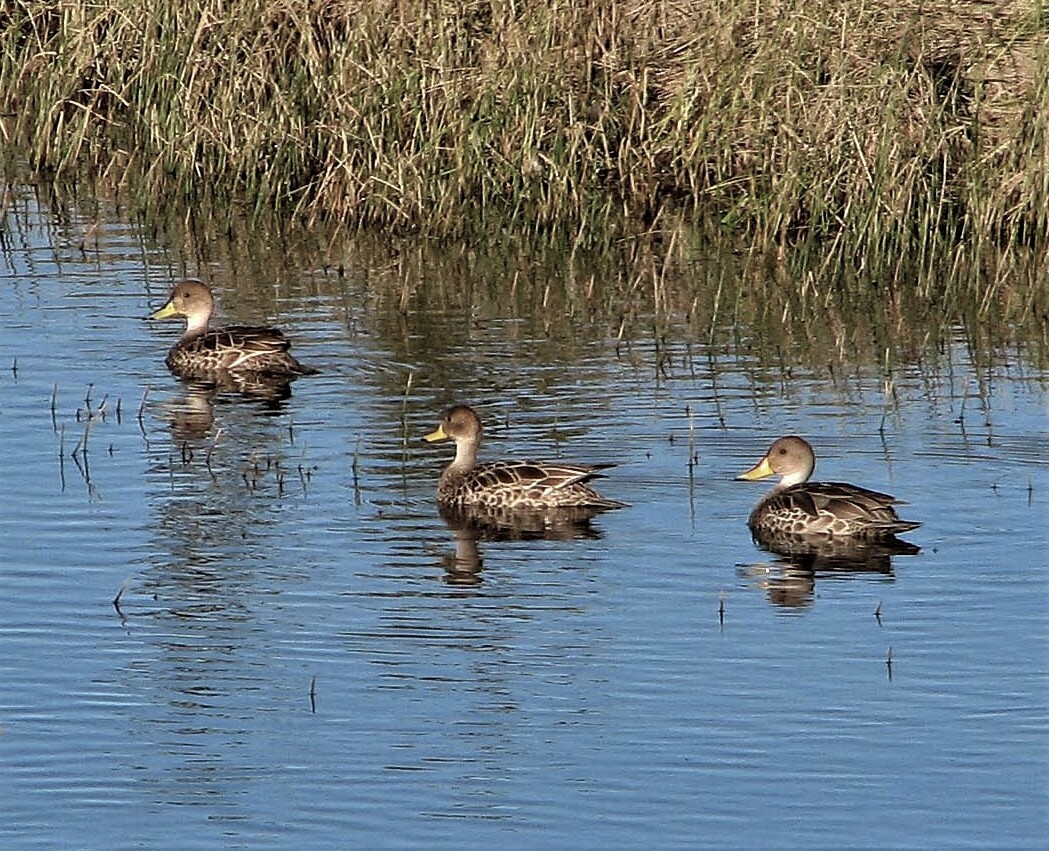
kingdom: Animalia
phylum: Chordata
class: Aves
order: Anseriformes
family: Anatidae
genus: Anas
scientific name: Anas georgica
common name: Yellow-billed pintail
